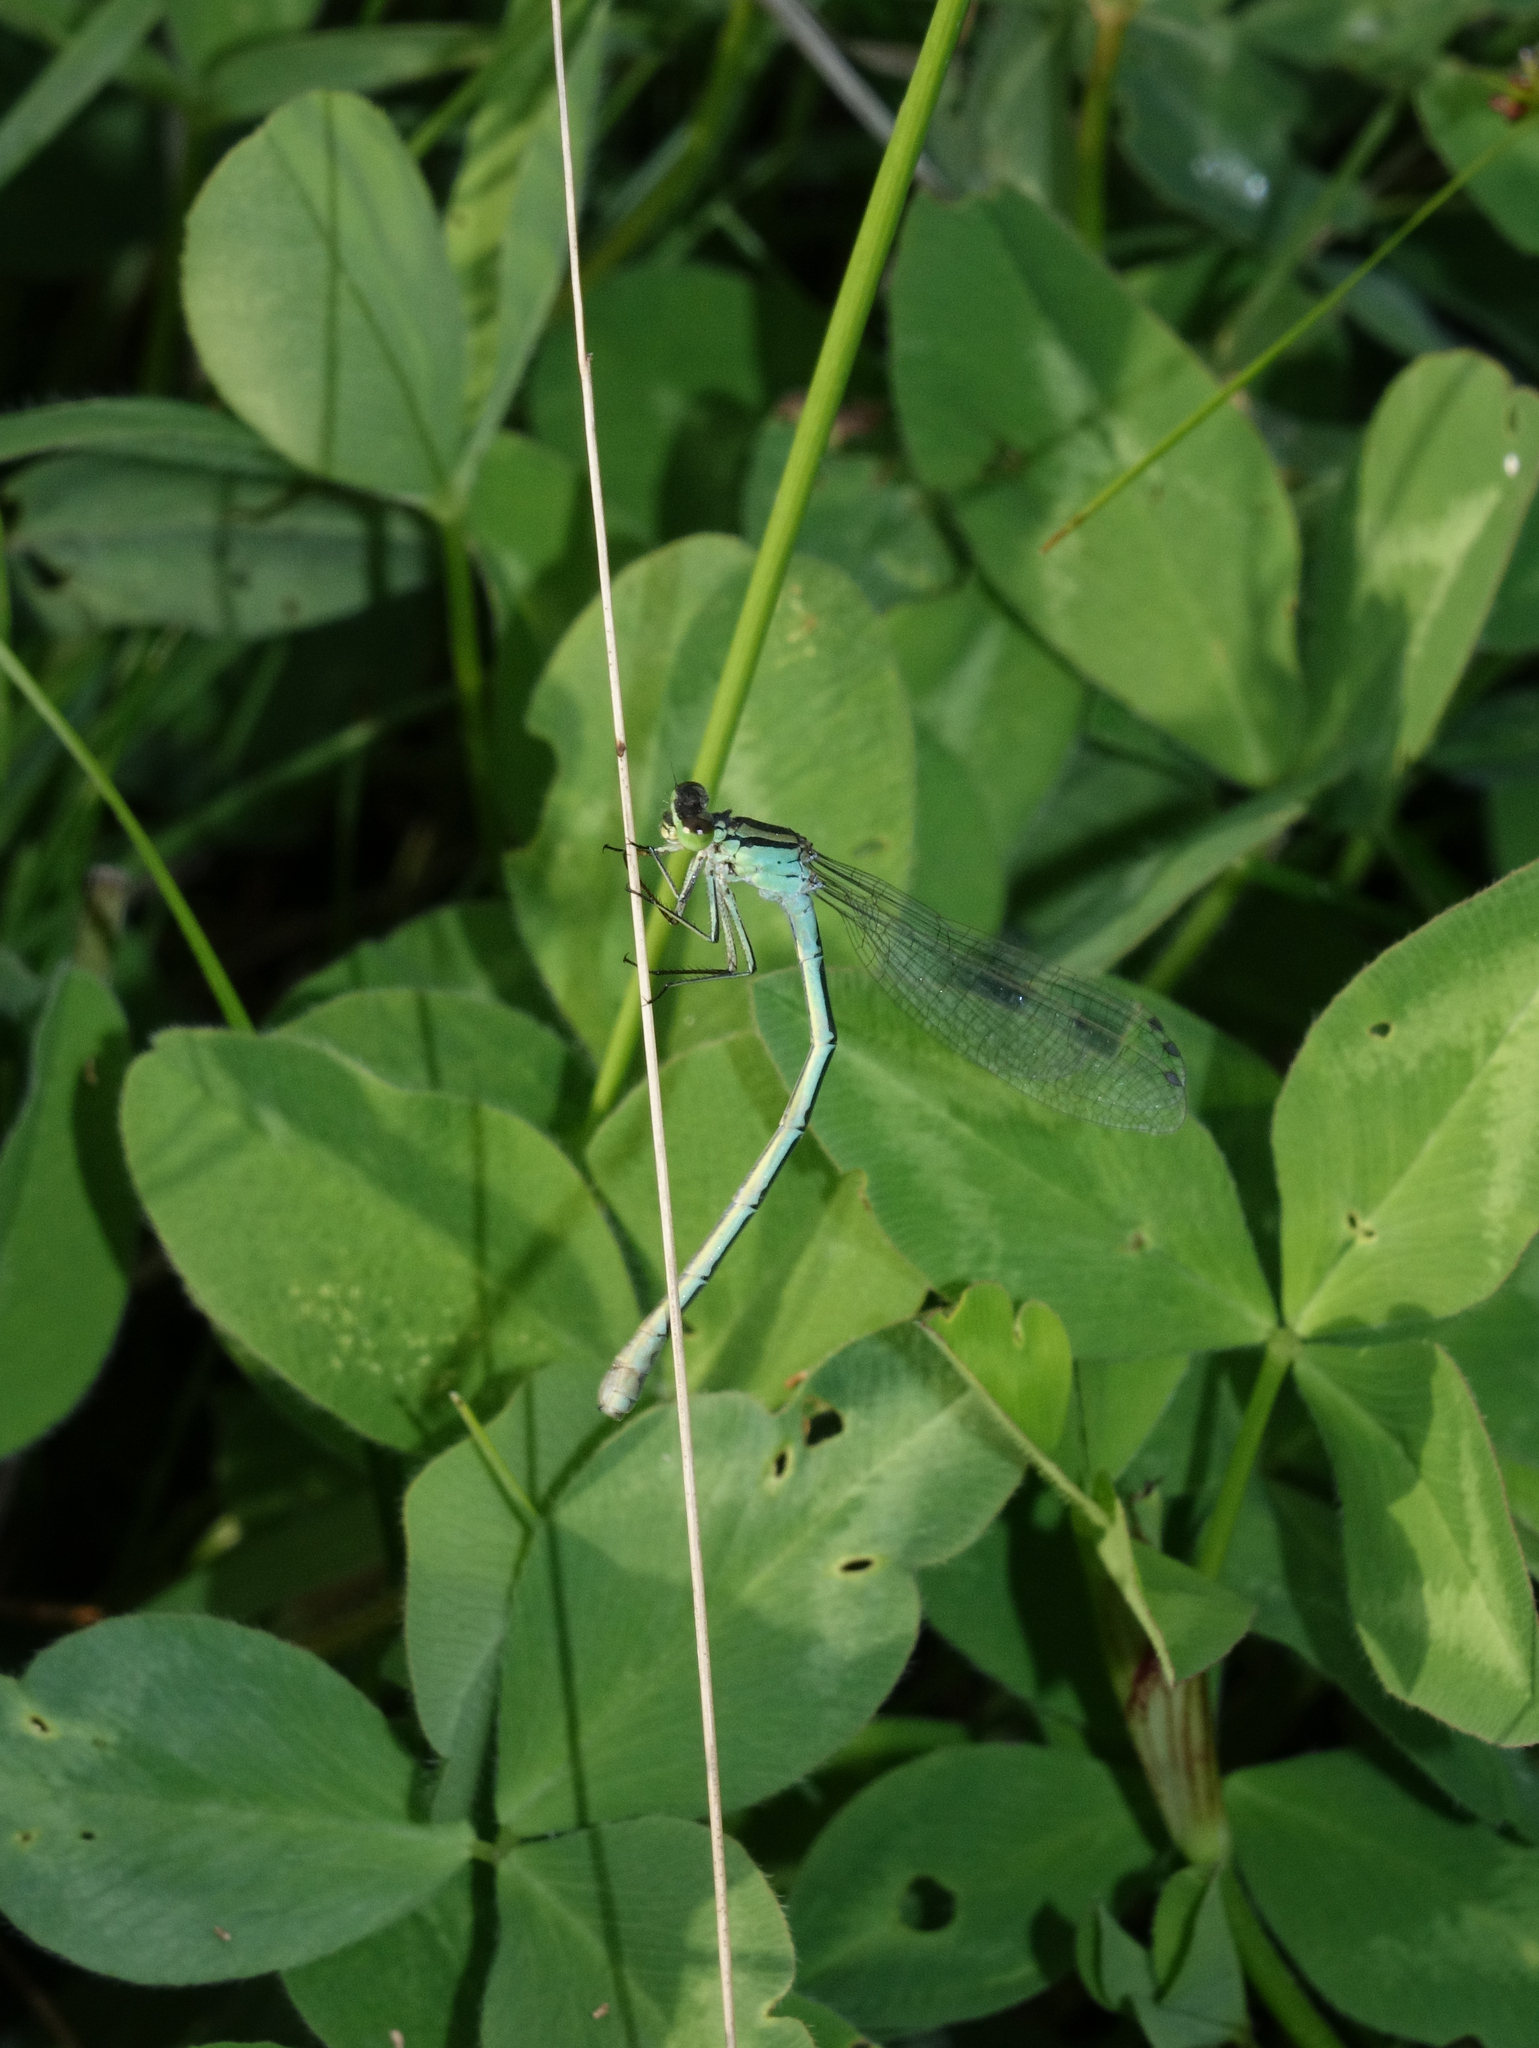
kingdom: Plantae
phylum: Tracheophyta
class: Magnoliopsida
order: Fabales
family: Fabaceae
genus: Trifolium
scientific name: Trifolium pratense
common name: Red clover
